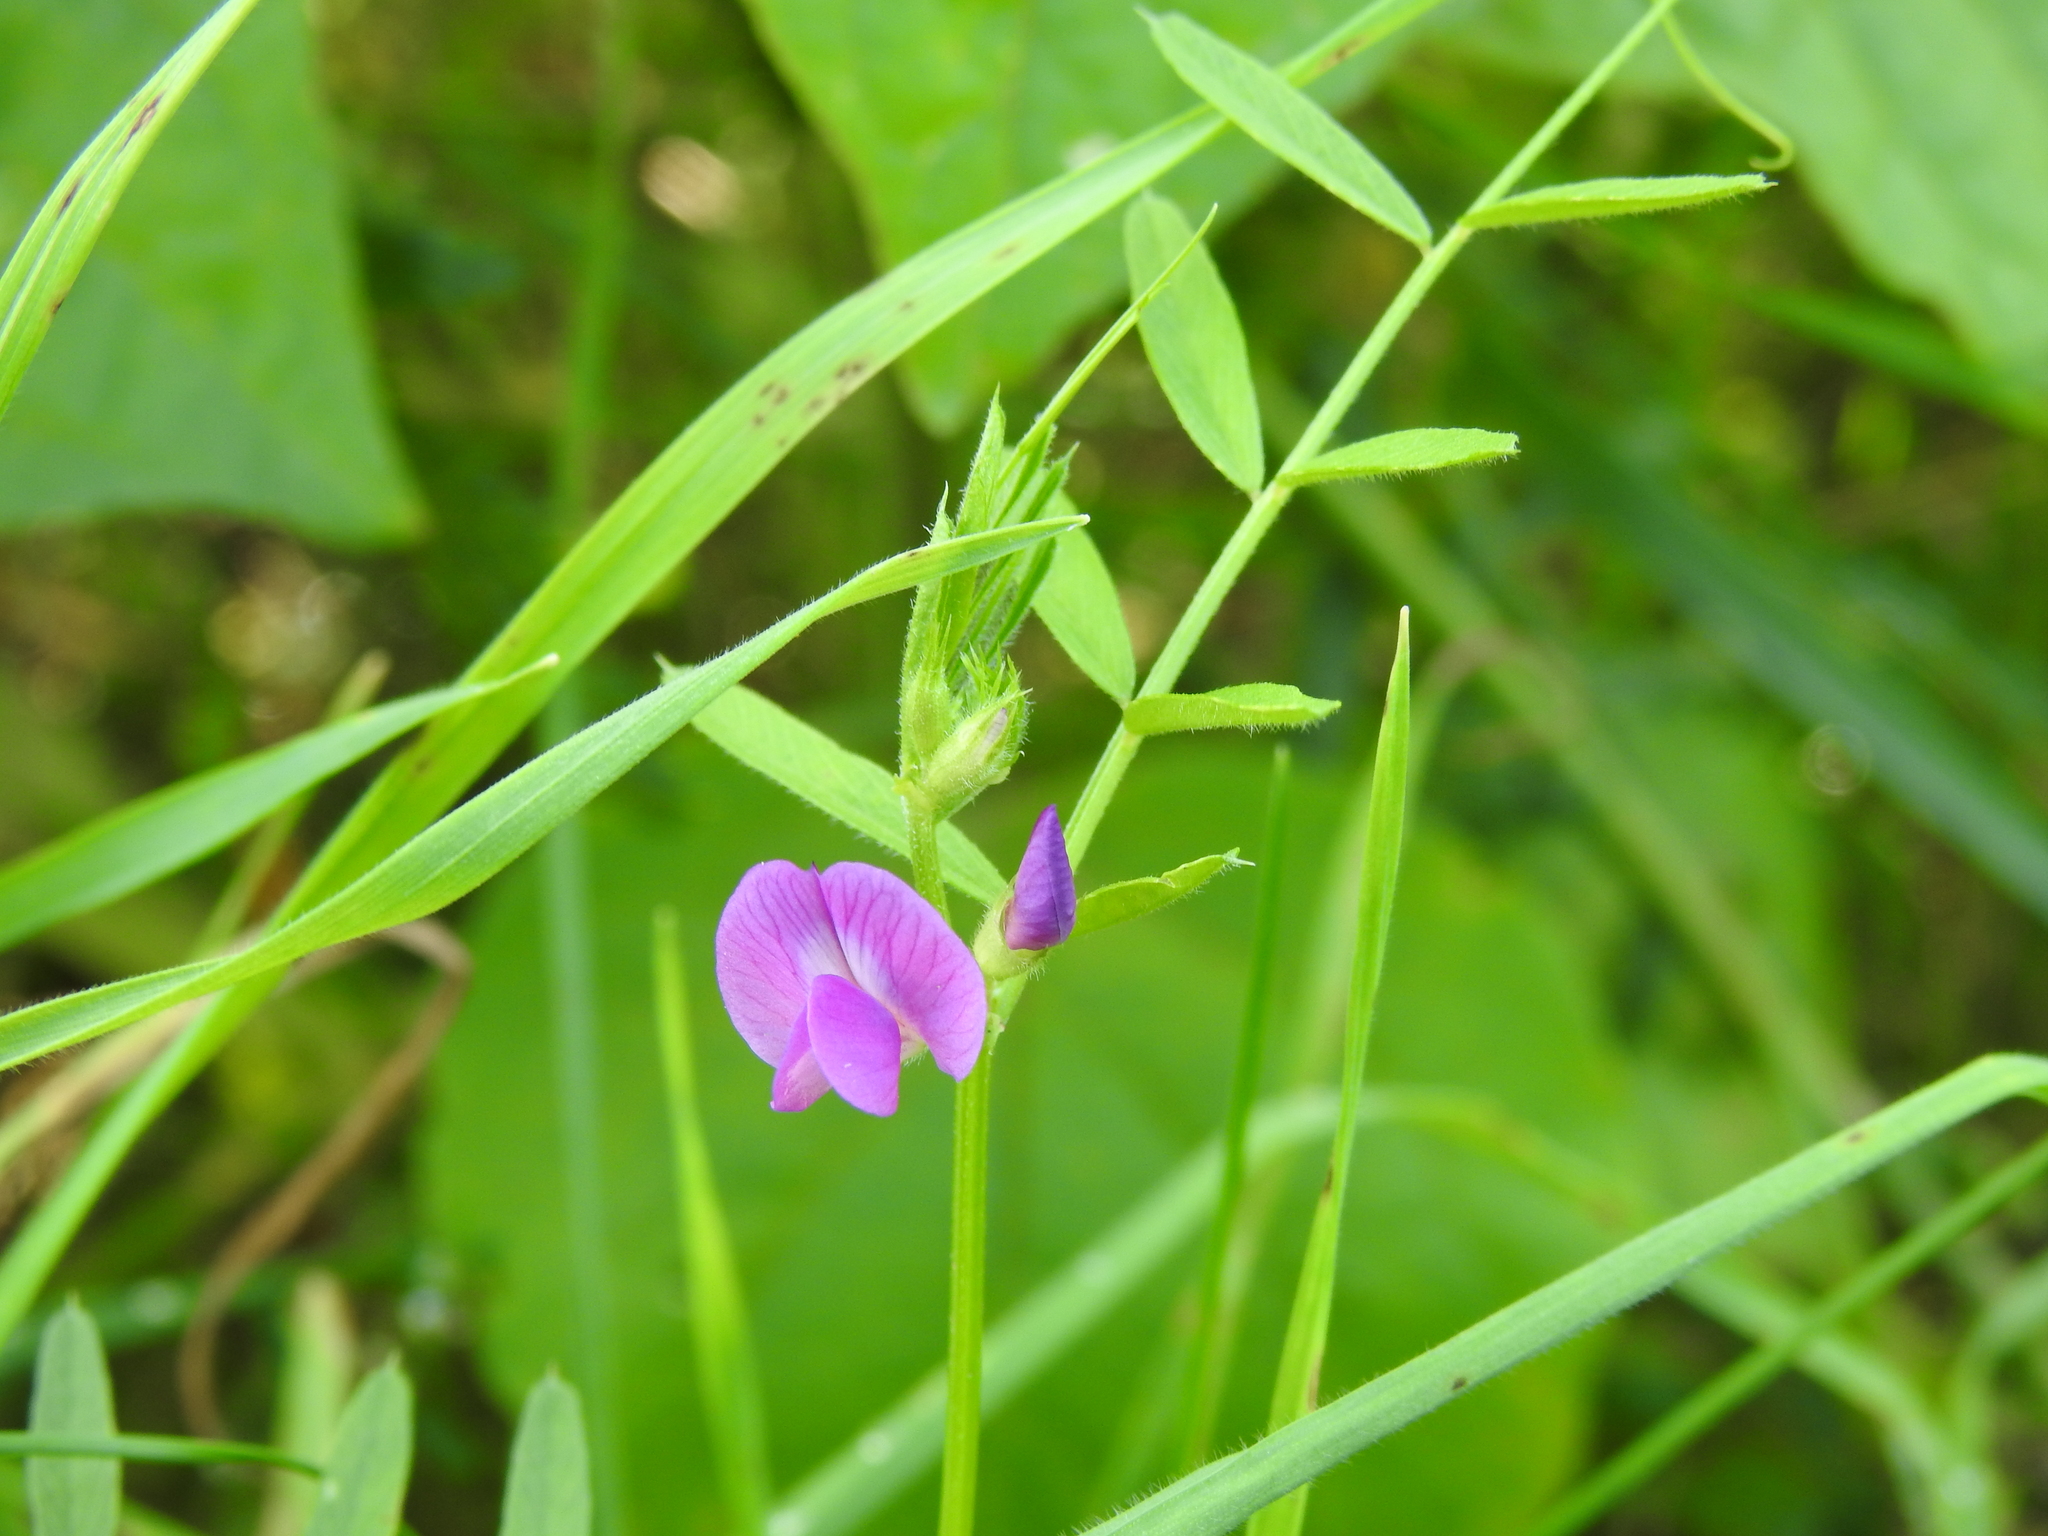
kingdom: Plantae
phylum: Tracheophyta
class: Magnoliopsida
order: Fabales
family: Fabaceae
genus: Vicia
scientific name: Vicia sativa
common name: Garden vetch
